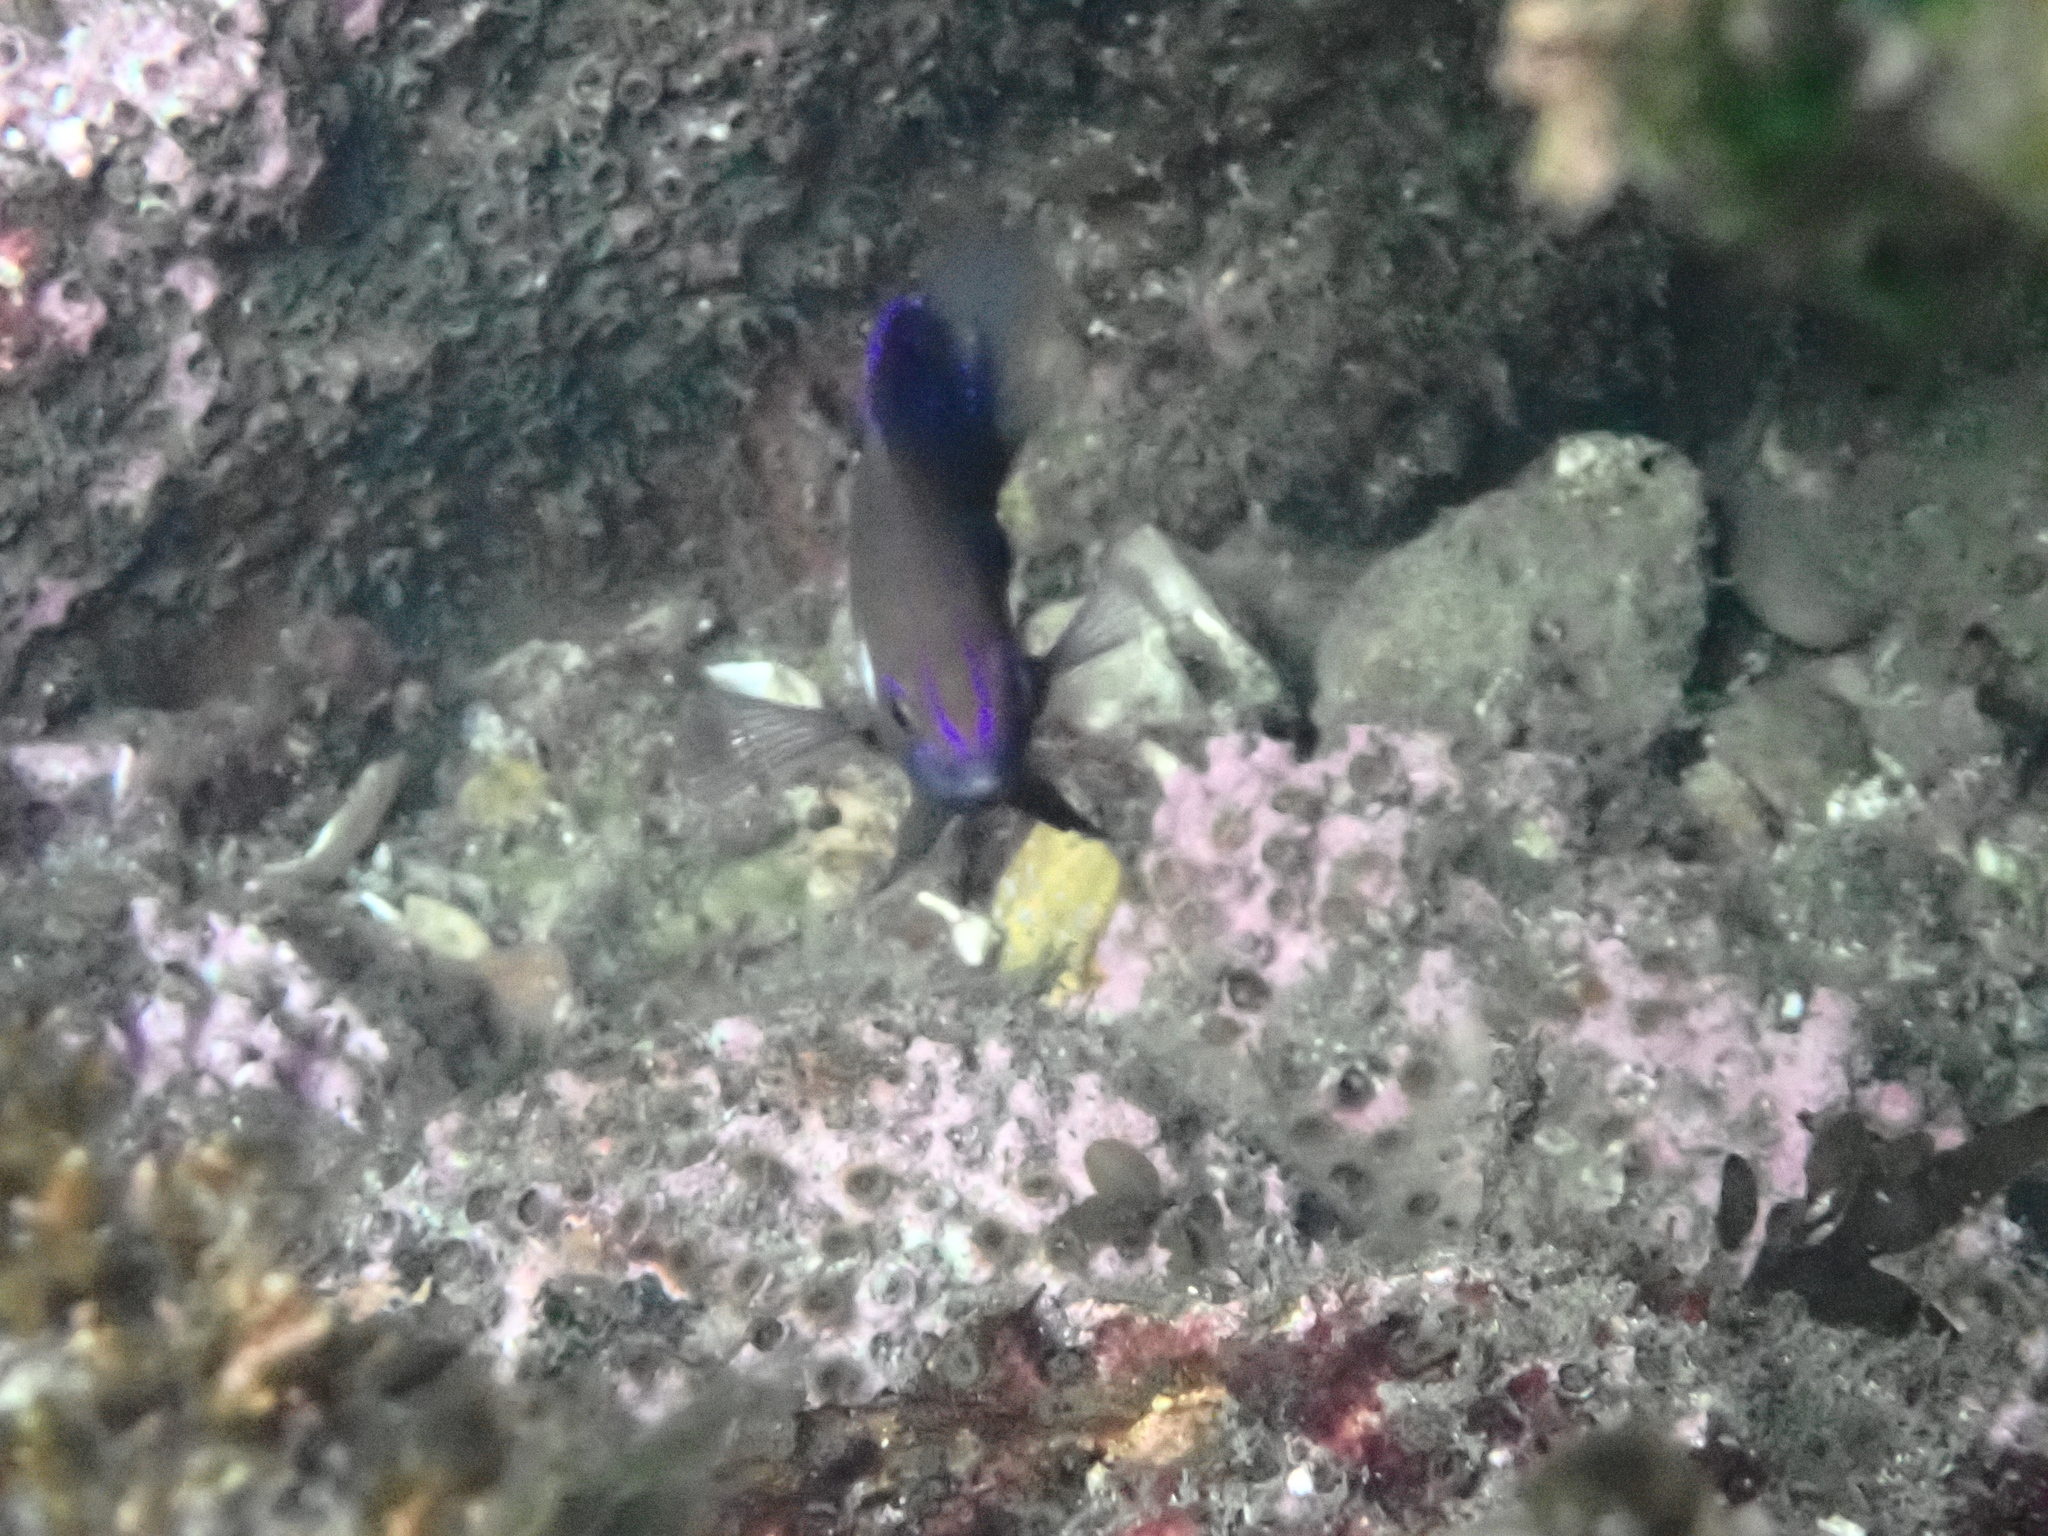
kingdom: Animalia
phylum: Chordata
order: Perciformes
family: Pomacentridae
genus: Parma
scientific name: Parma microlepis
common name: White-ear
